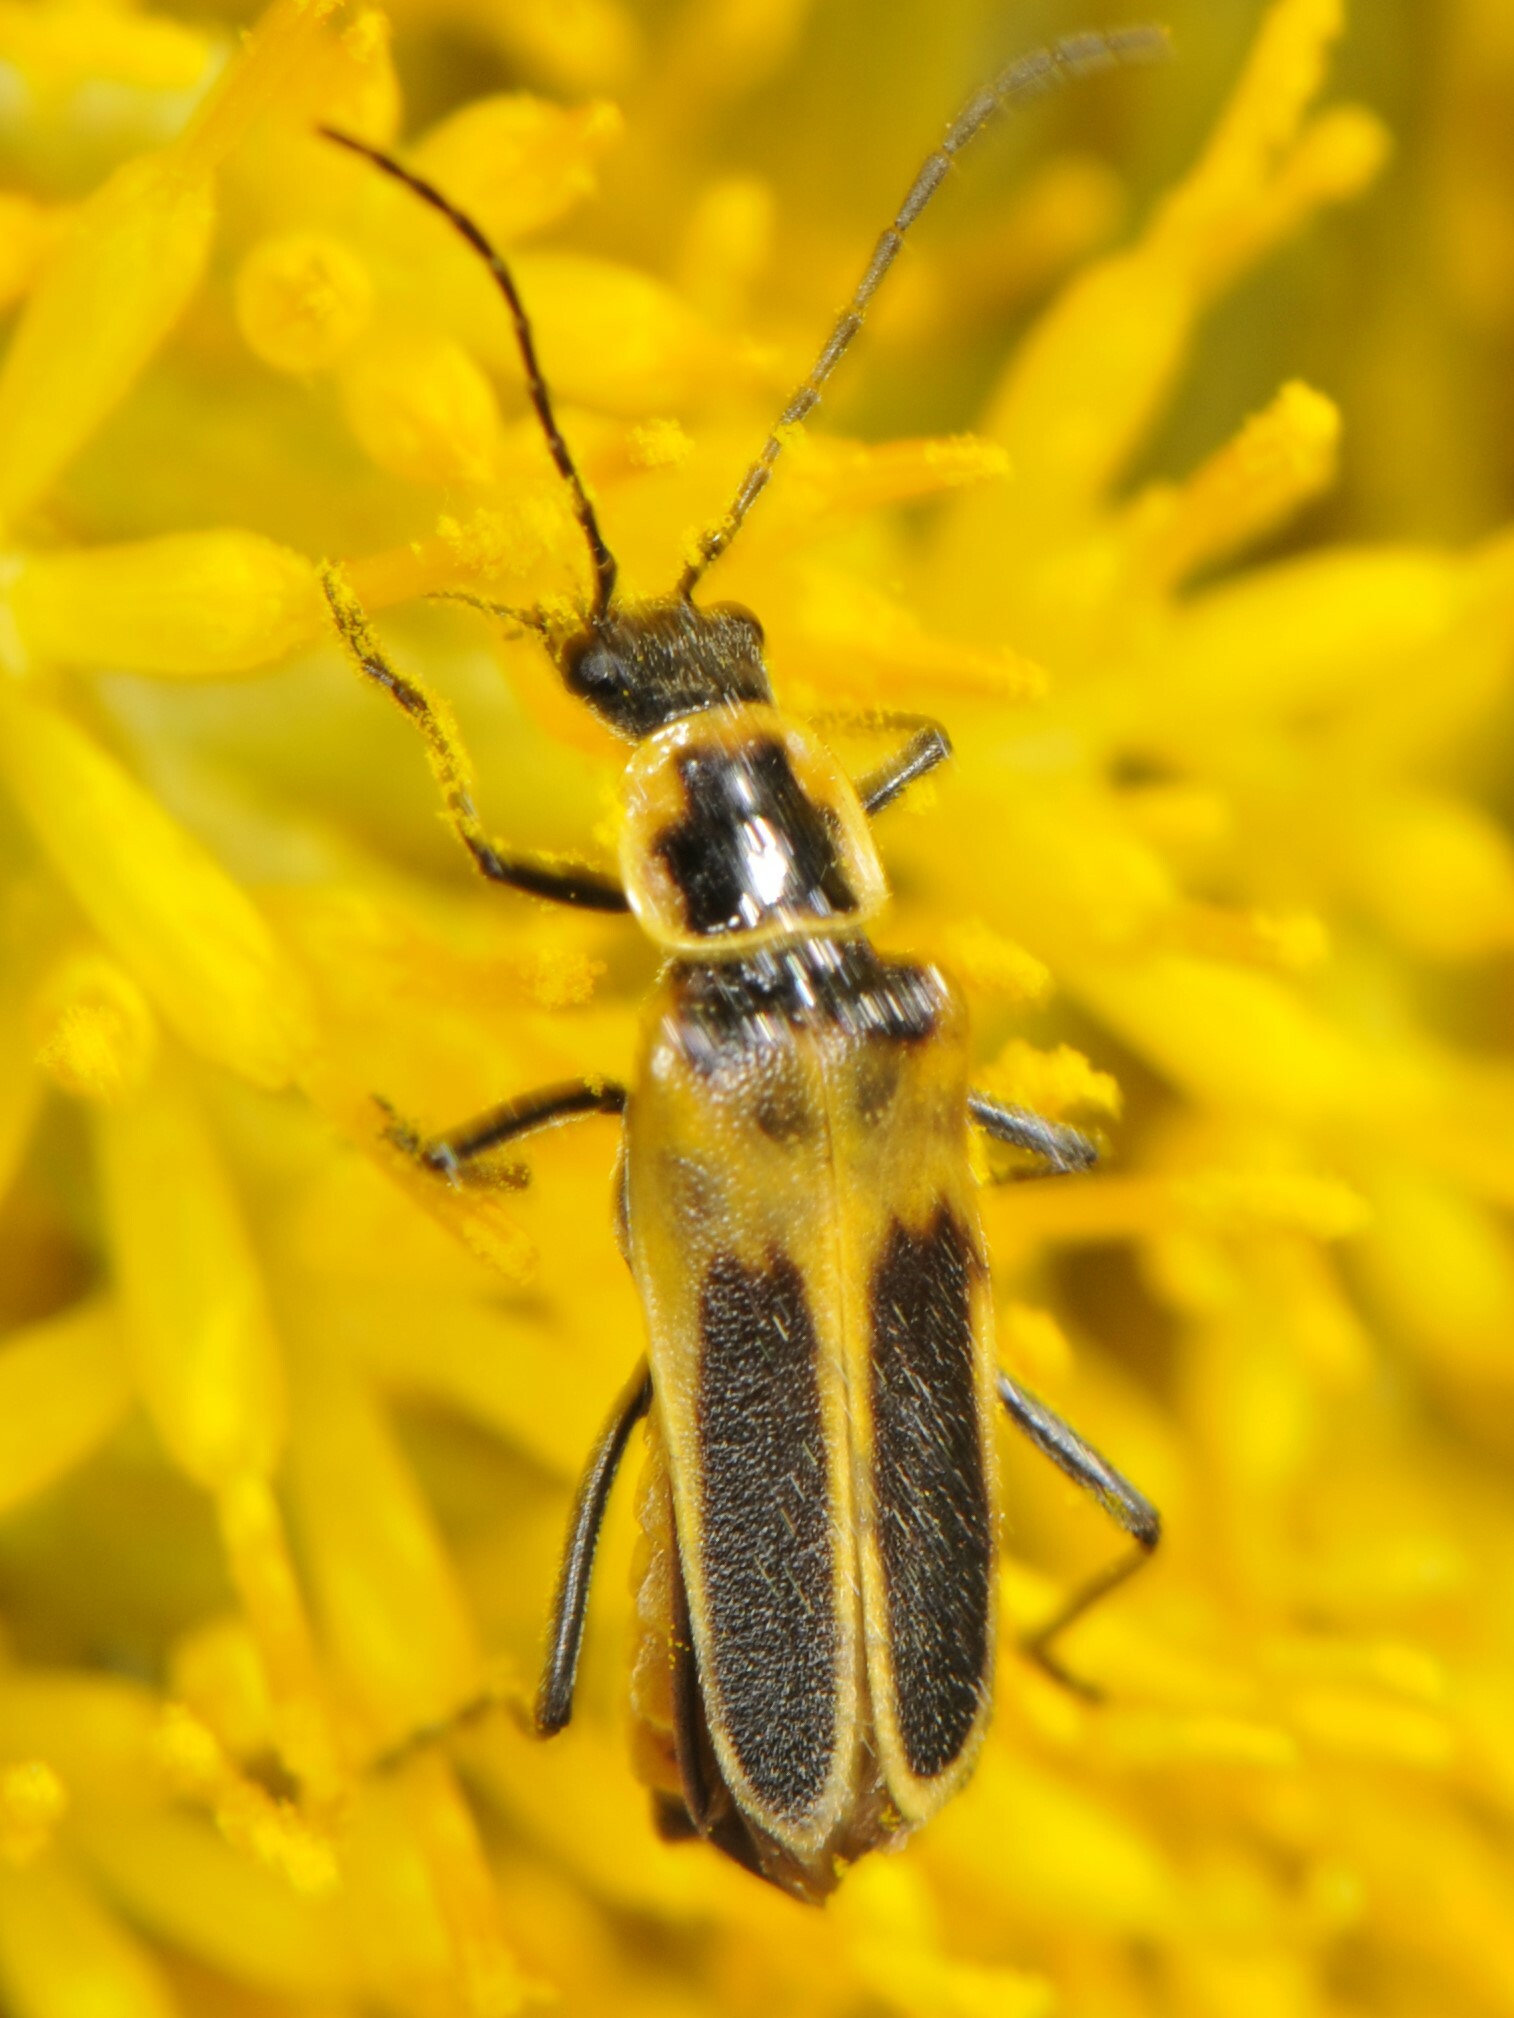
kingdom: Animalia
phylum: Arthropoda
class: Insecta
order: Coleoptera
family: Cantharidae
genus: Chauliognathus
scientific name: Chauliognathus lewisi
